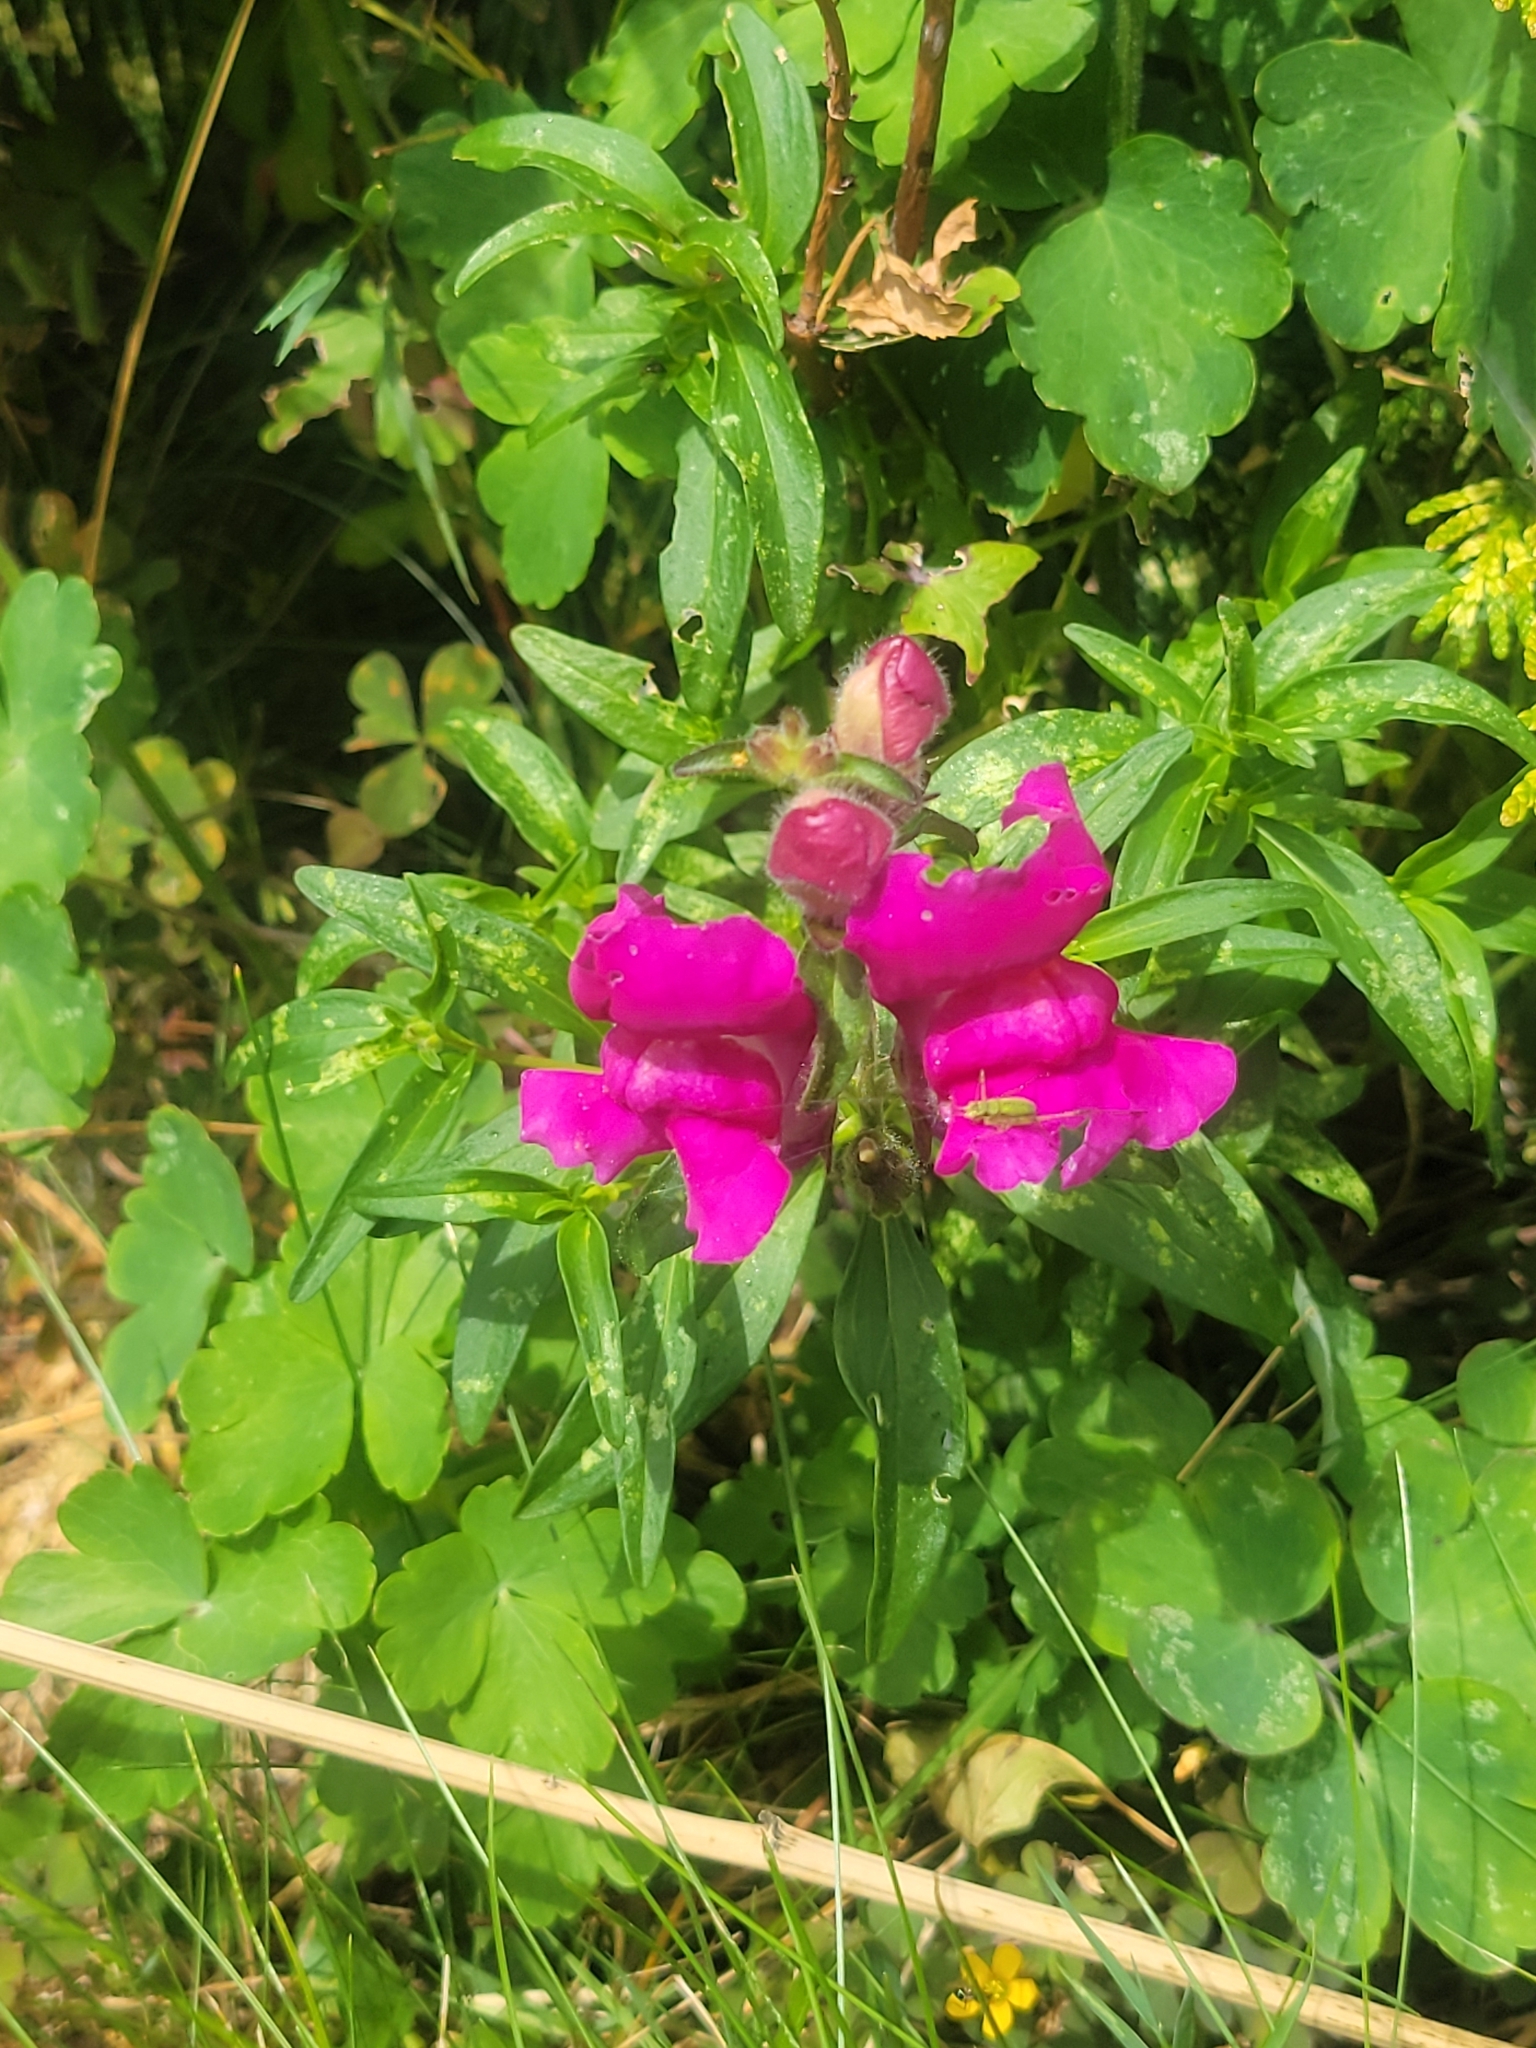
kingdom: Plantae
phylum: Tracheophyta
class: Magnoliopsida
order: Lamiales
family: Plantaginaceae
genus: Antirrhinum
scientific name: Antirrhinum majus
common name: Snapdragon
